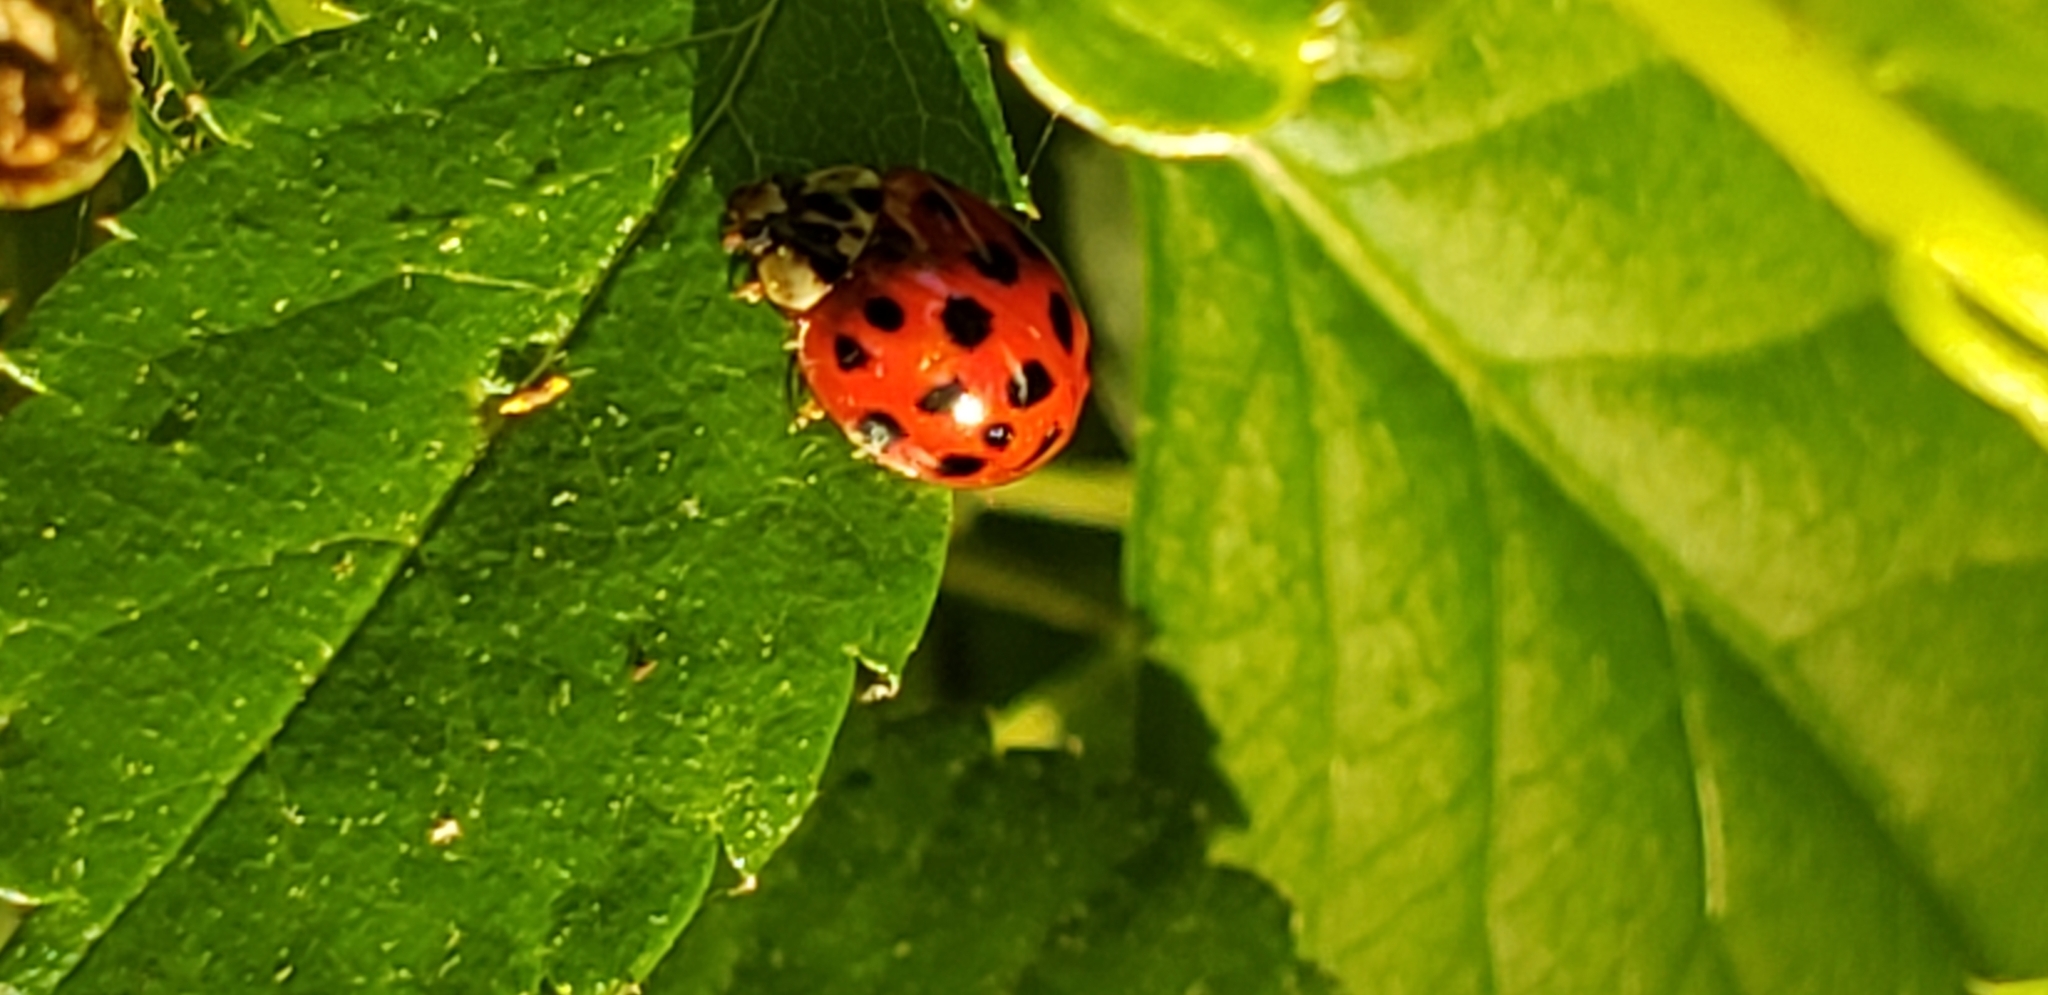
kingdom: Animalia
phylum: Arthropoda
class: Insecta
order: Coleoptera
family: Coccinellidae
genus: Harmonia
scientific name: Harmonia axyridis
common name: Harlequin ladybird
